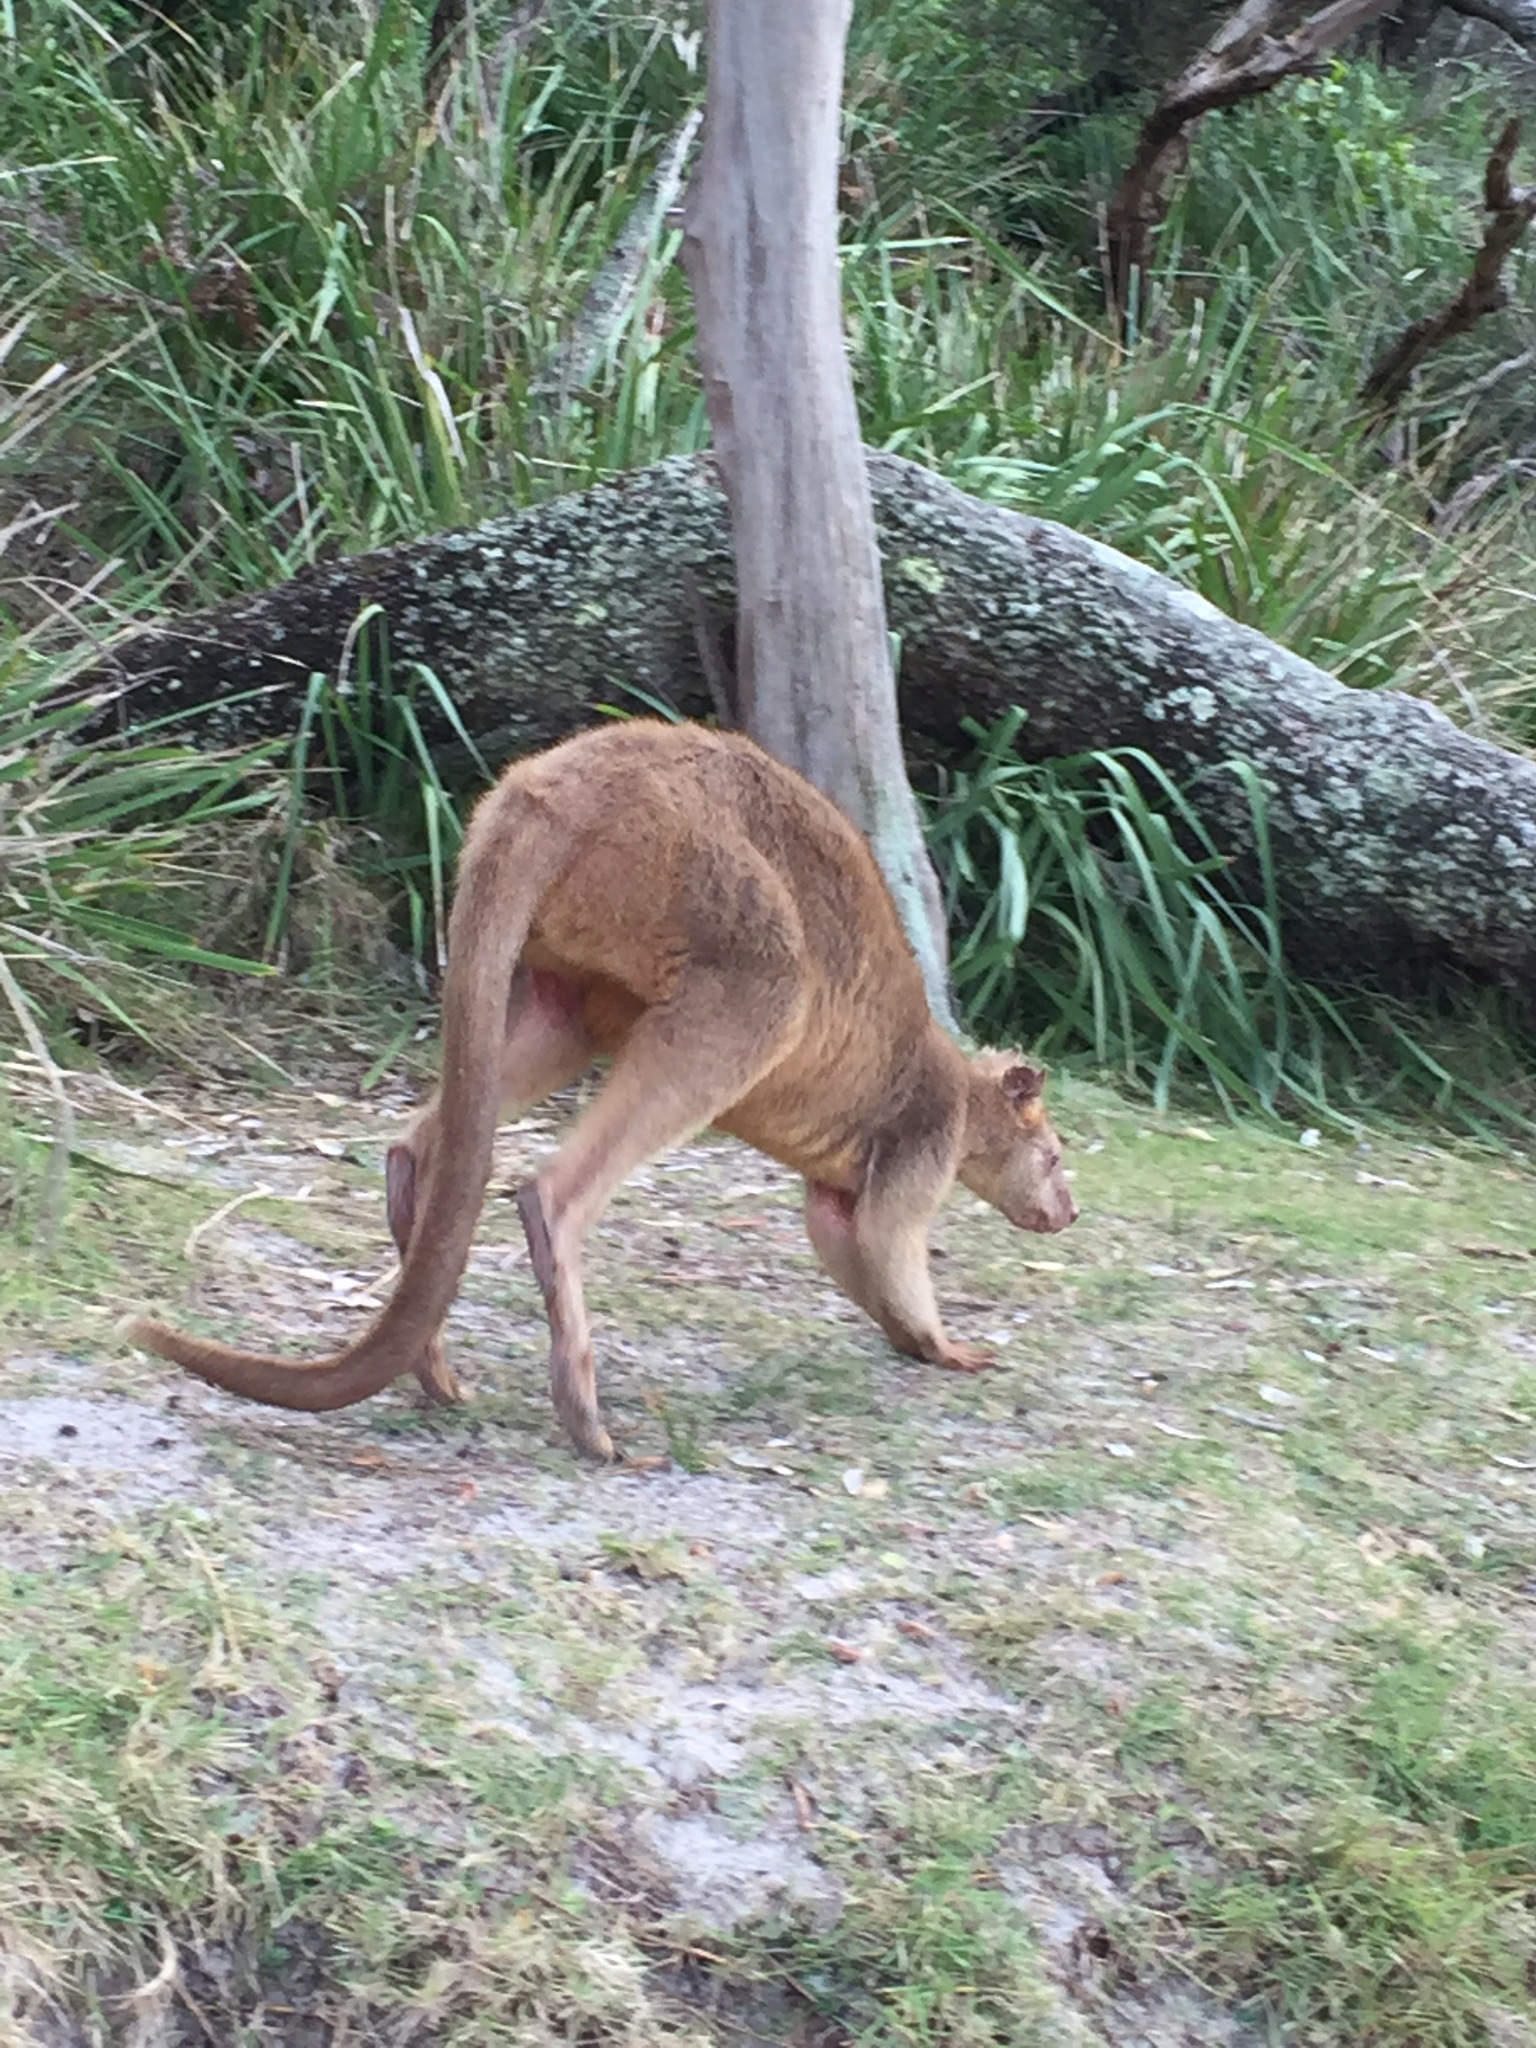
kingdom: Animalia
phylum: Chordata
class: Mammalia
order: Diprotodontia
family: Macropodidae
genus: Wallabia
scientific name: Wallabia bicolor
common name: Swamp wallaby
